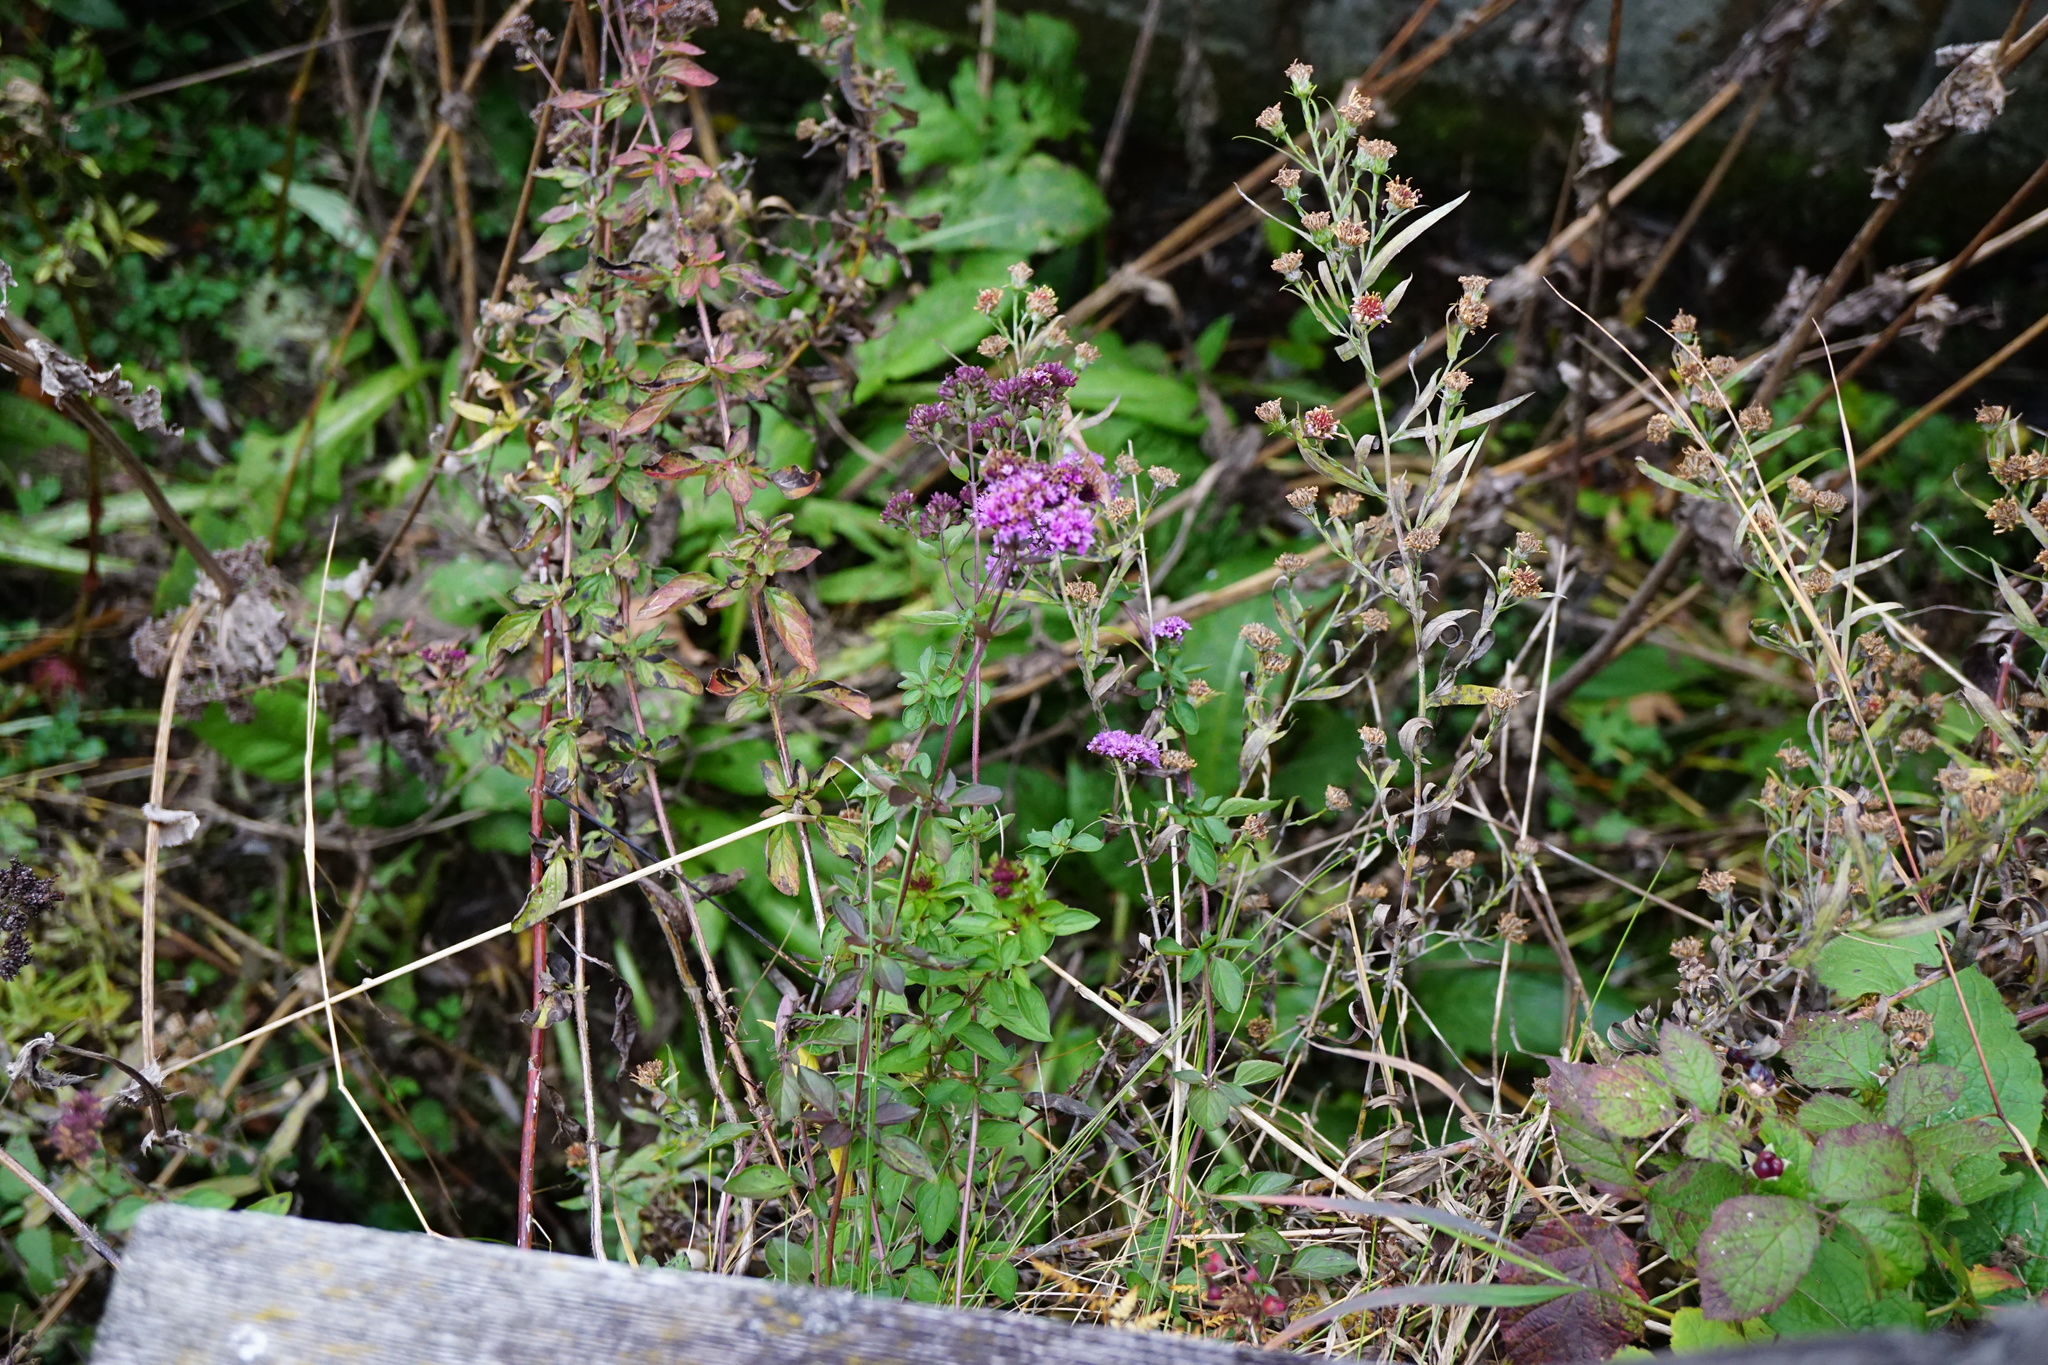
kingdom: Plantae
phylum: Tracheophyta
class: Magnoliopsida
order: Lamiales
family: Lamiaceae
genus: Origanum
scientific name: Origanum vulgare
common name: Wild marjoram
